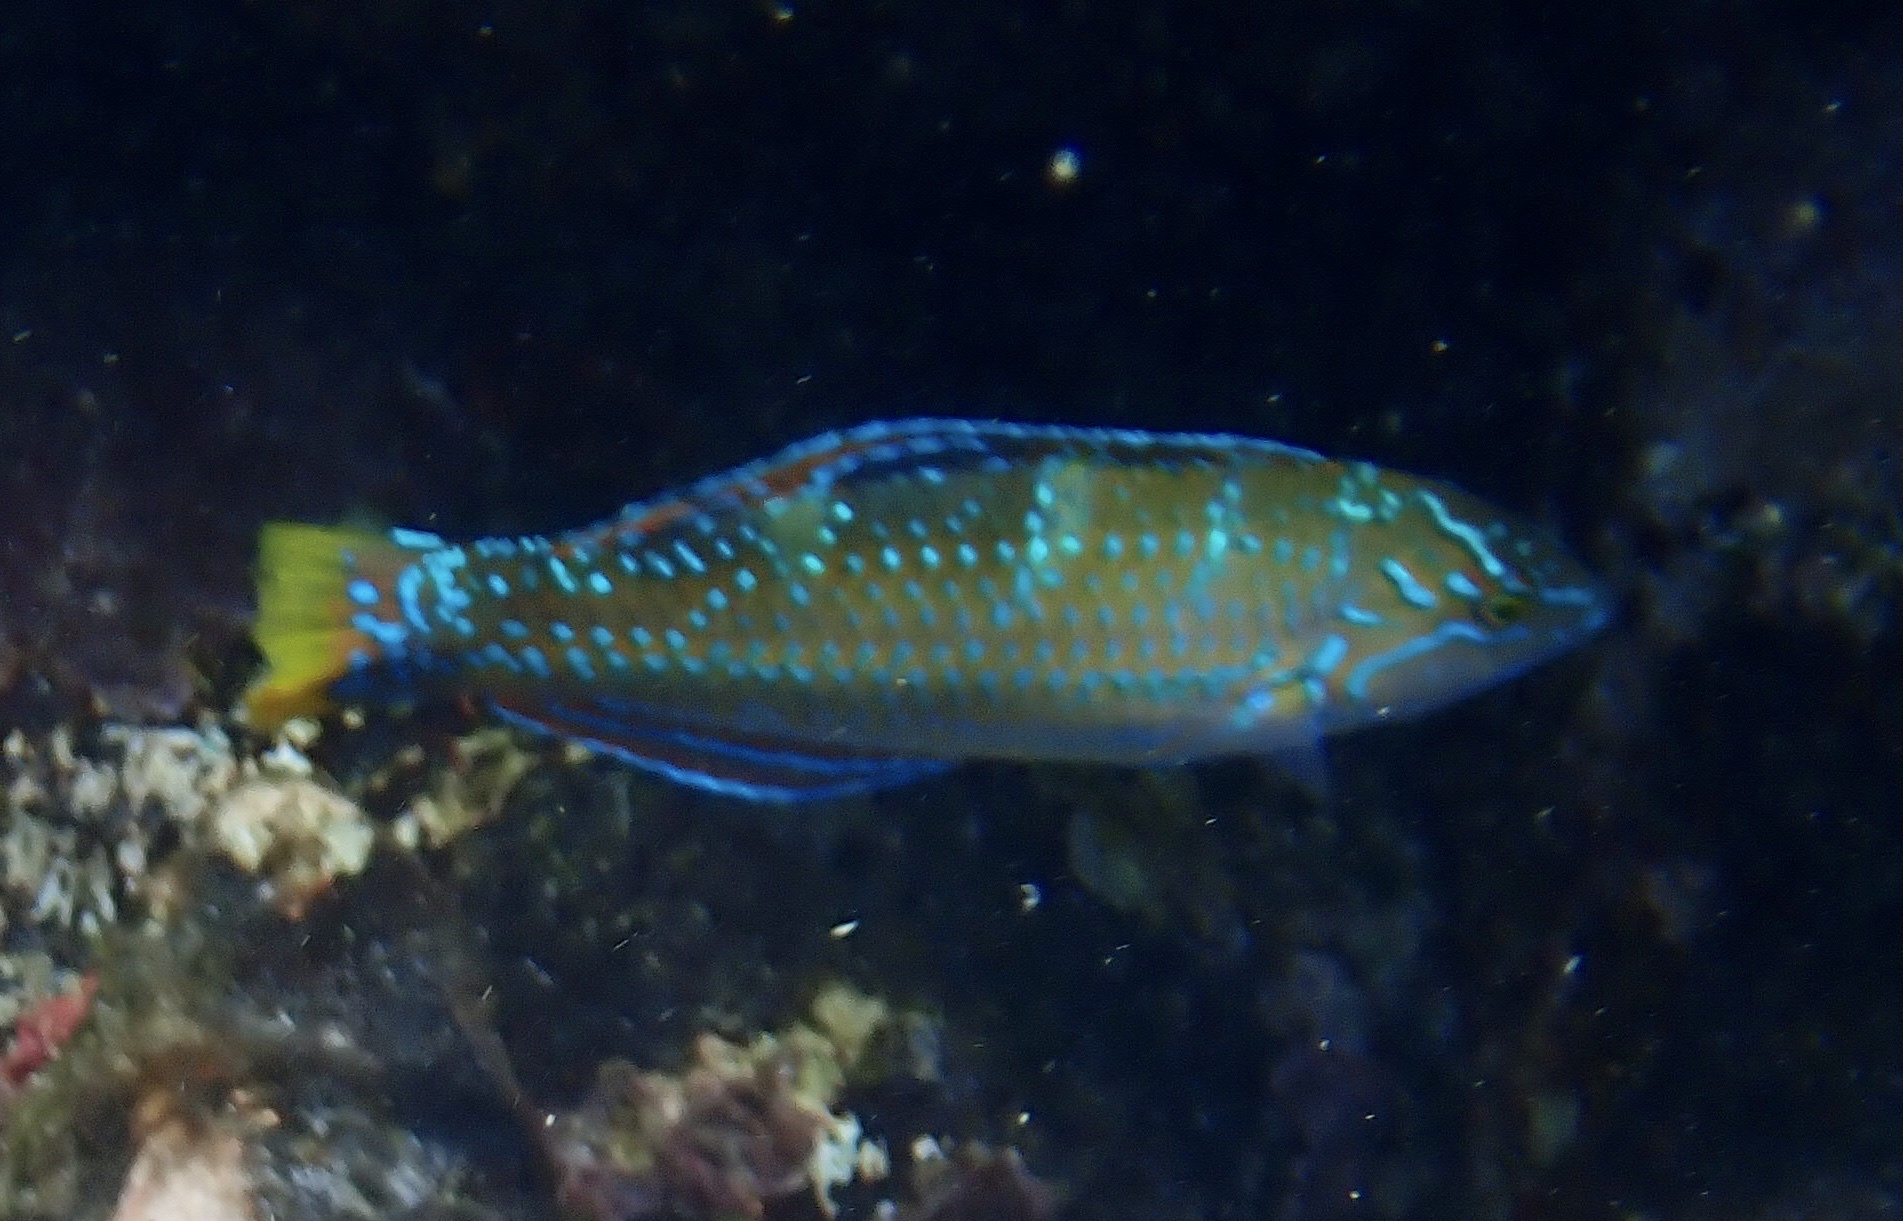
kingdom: Animalia
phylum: Chordata
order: Perciformes
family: Labridae
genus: Halichoeres
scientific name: Halichoeres radiatus
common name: Puddingwife
